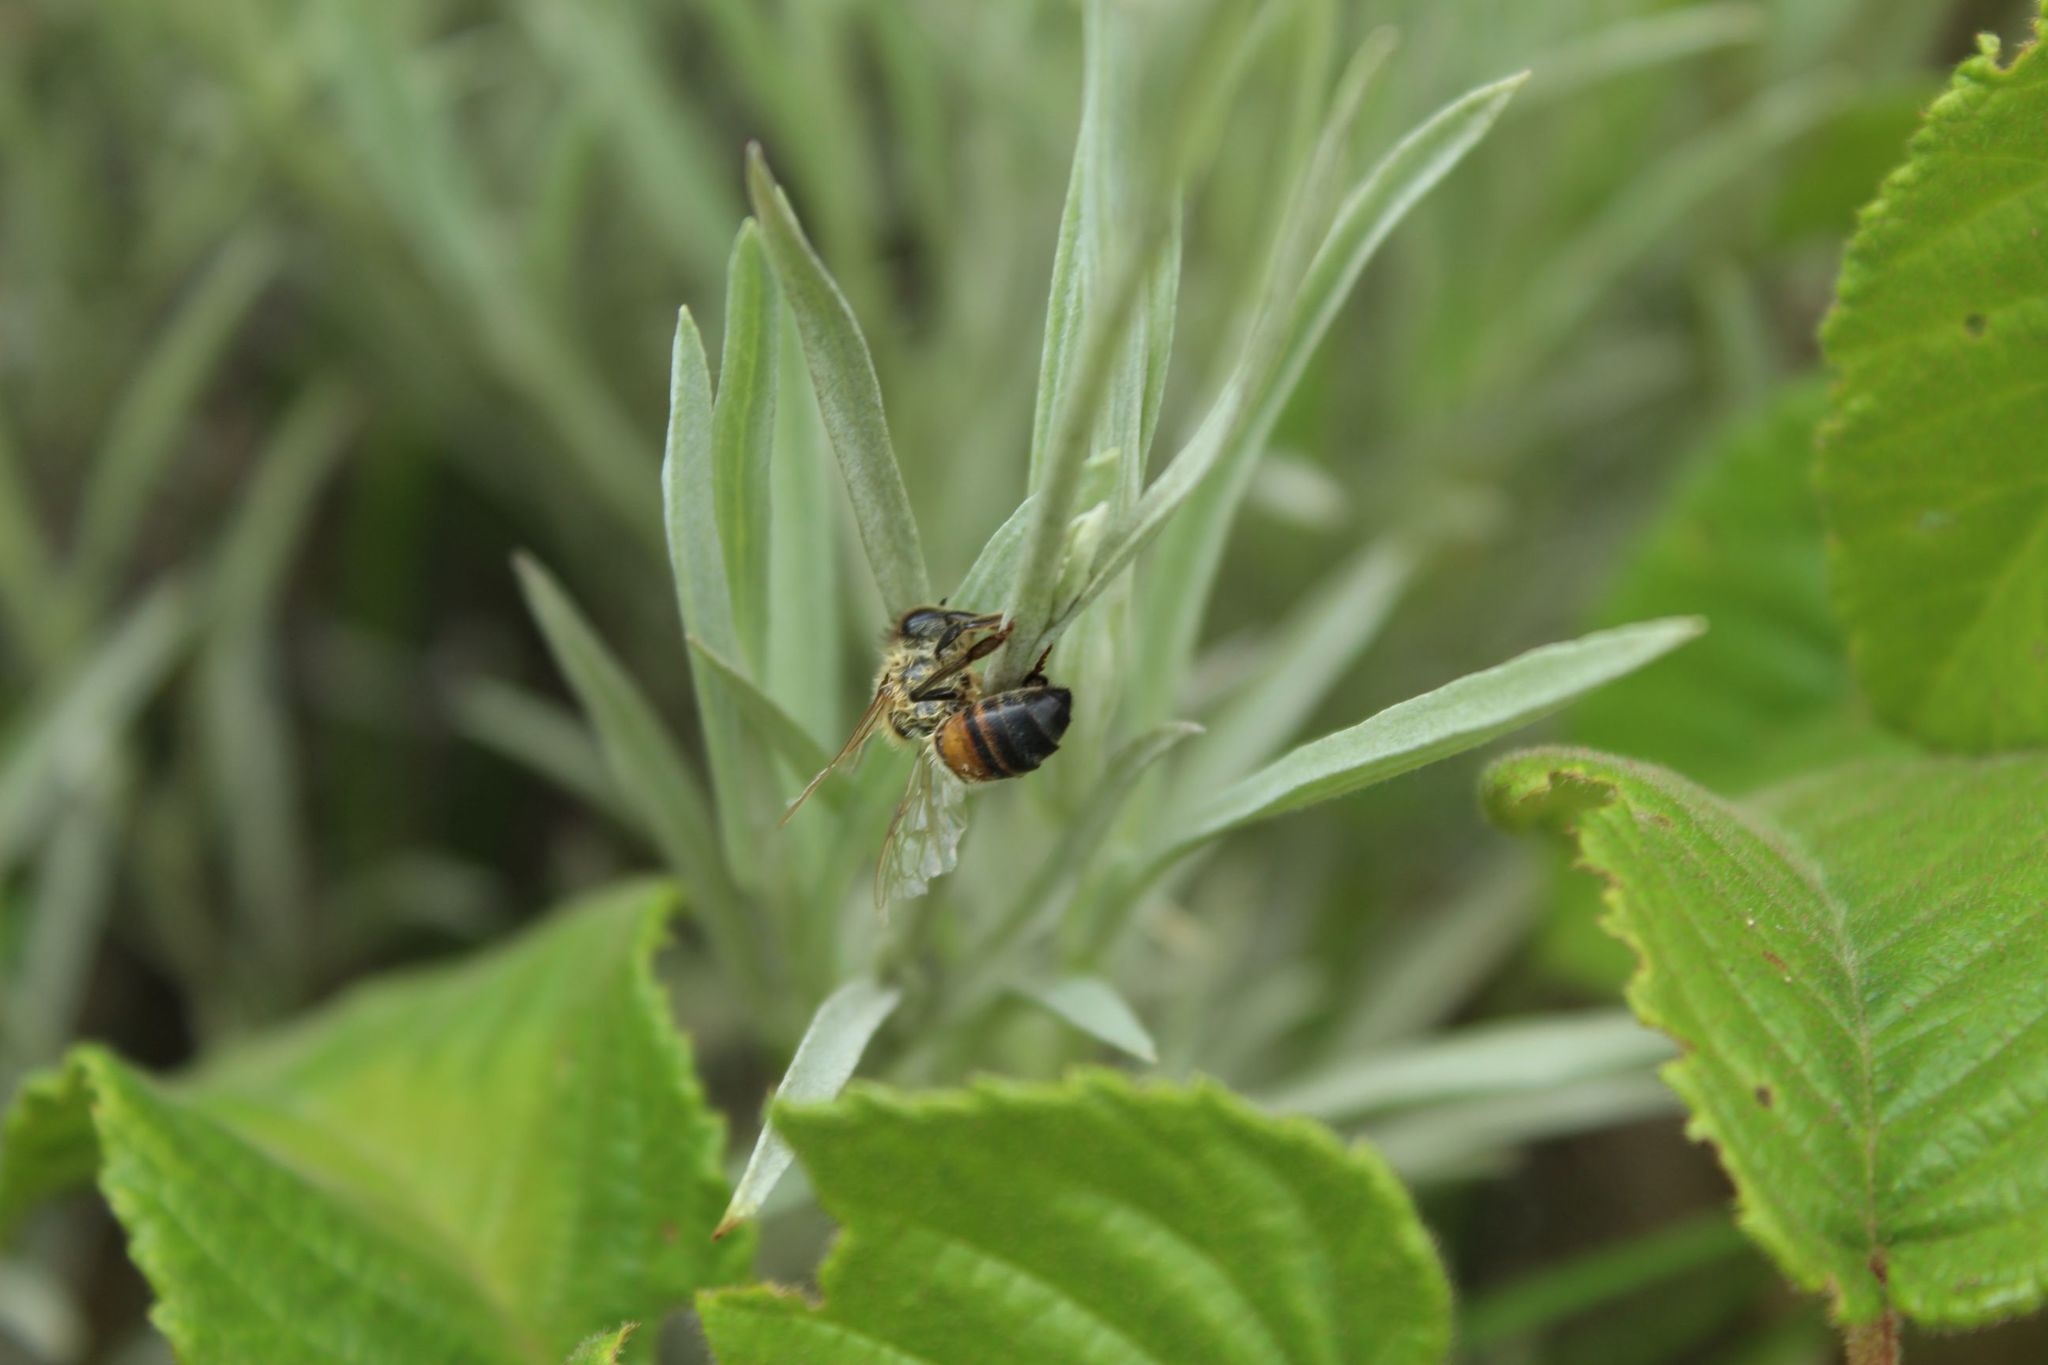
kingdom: Animalia
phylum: Arthropoda
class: Insecta
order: Hymenoptera
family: Apidae
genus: Apis
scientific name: Apis mellifera
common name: Honey bee
